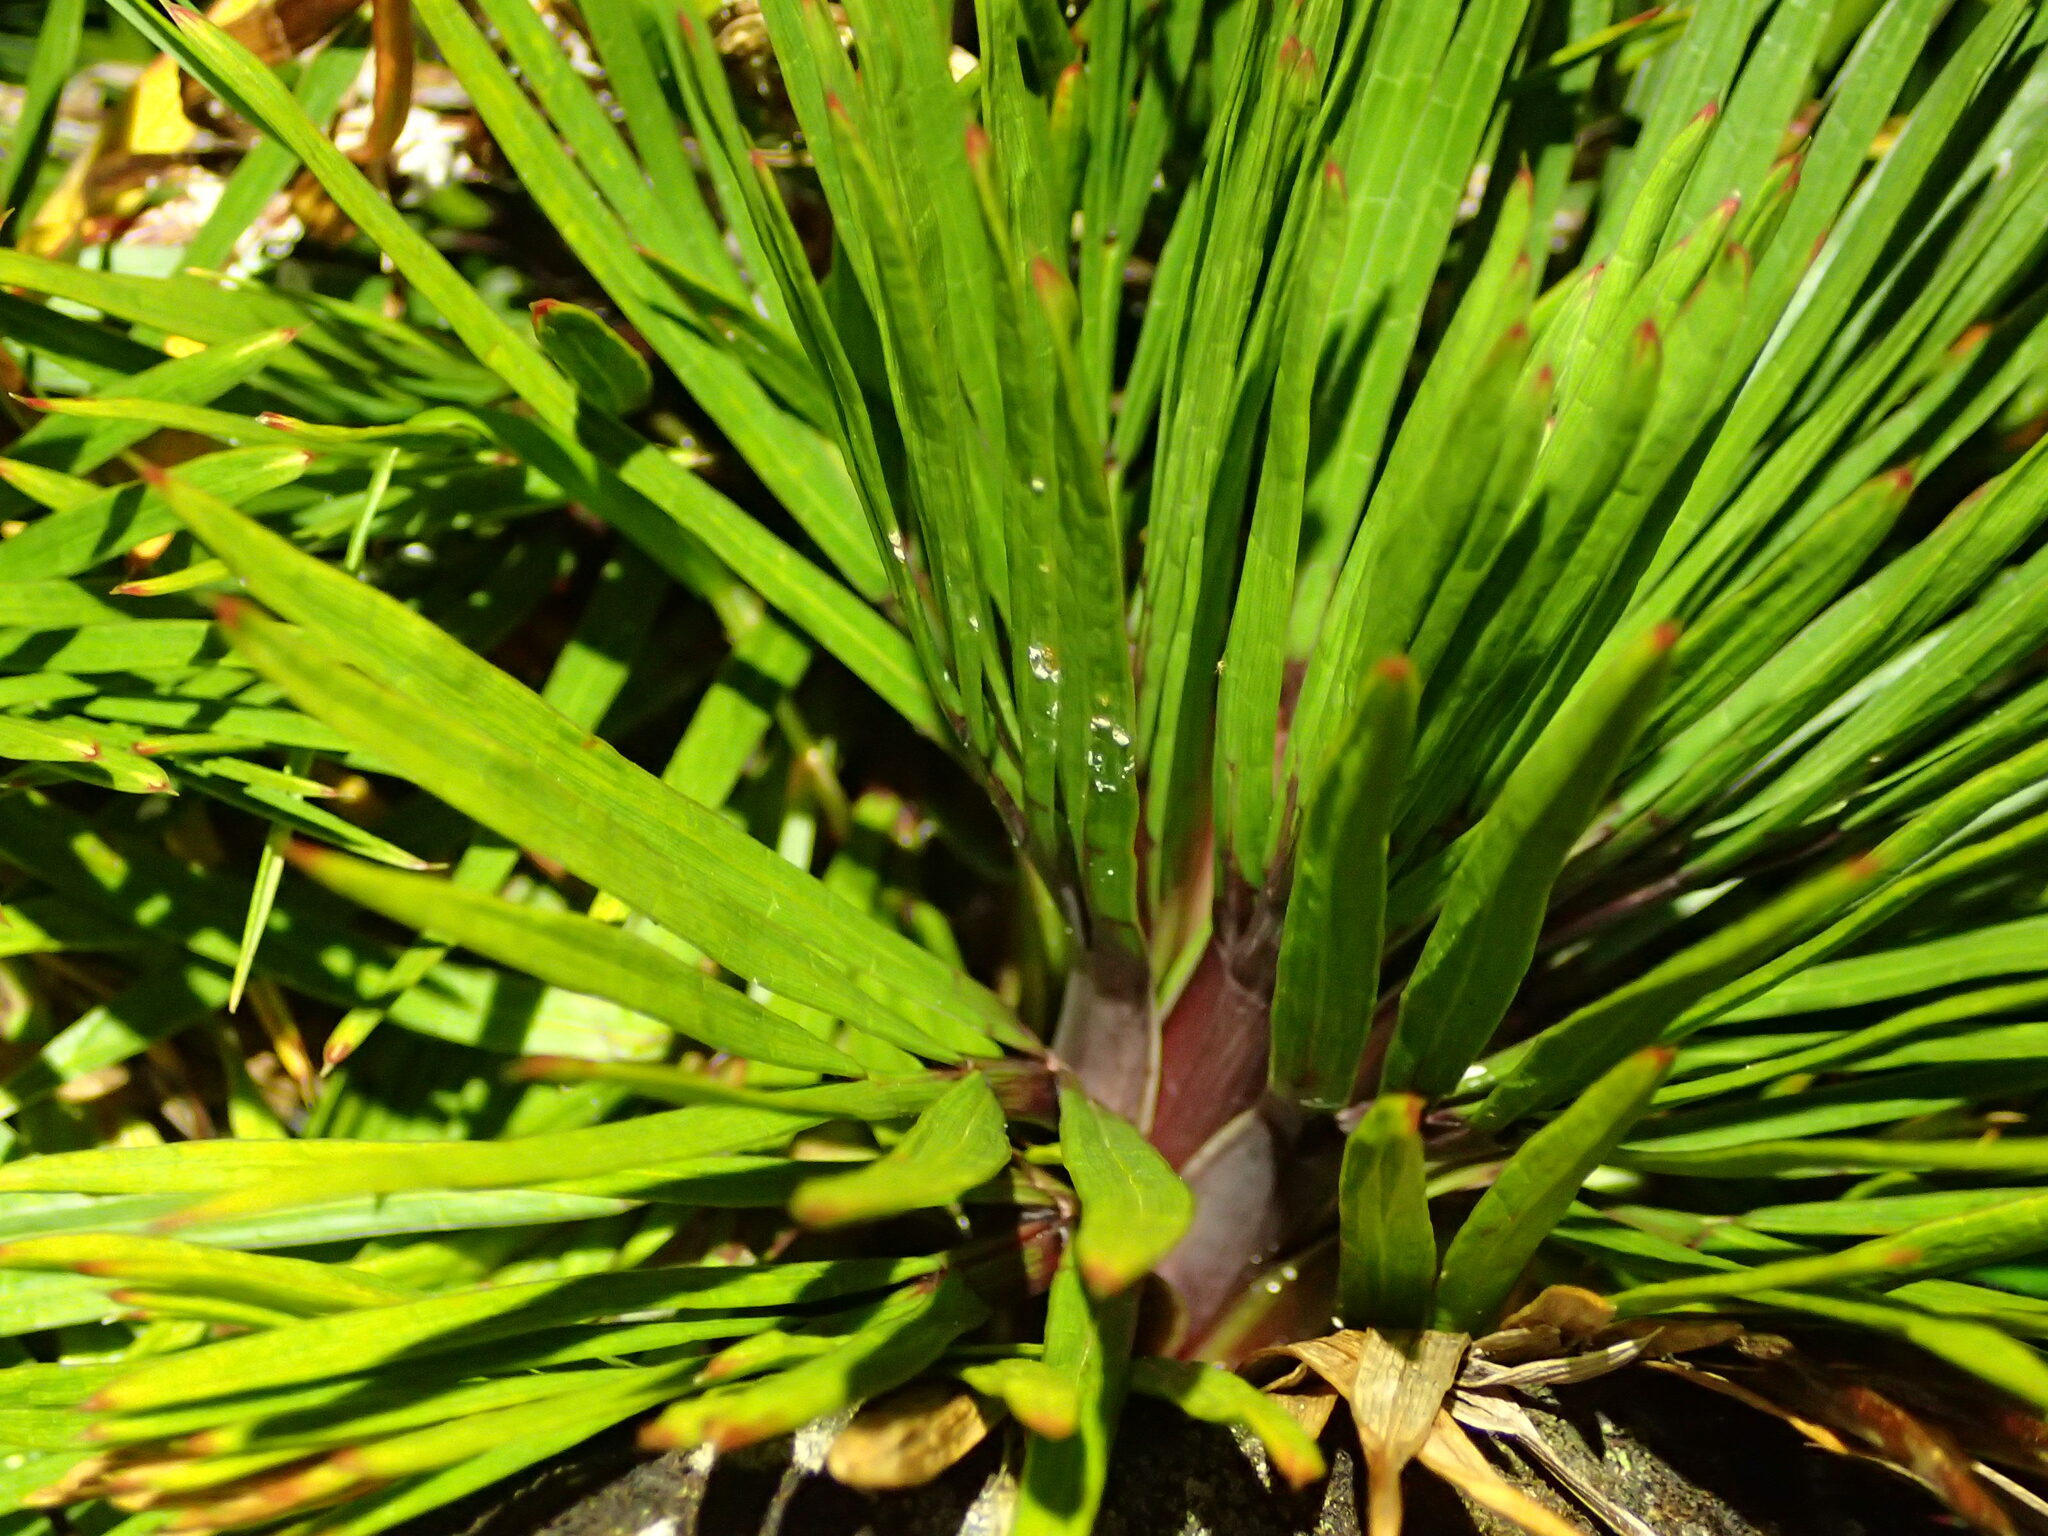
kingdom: Plantae
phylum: Tracheophyta
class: Magnoliopsida
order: Apiales
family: Apiaceae
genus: Aciphylla
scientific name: Aciphylla congesta
